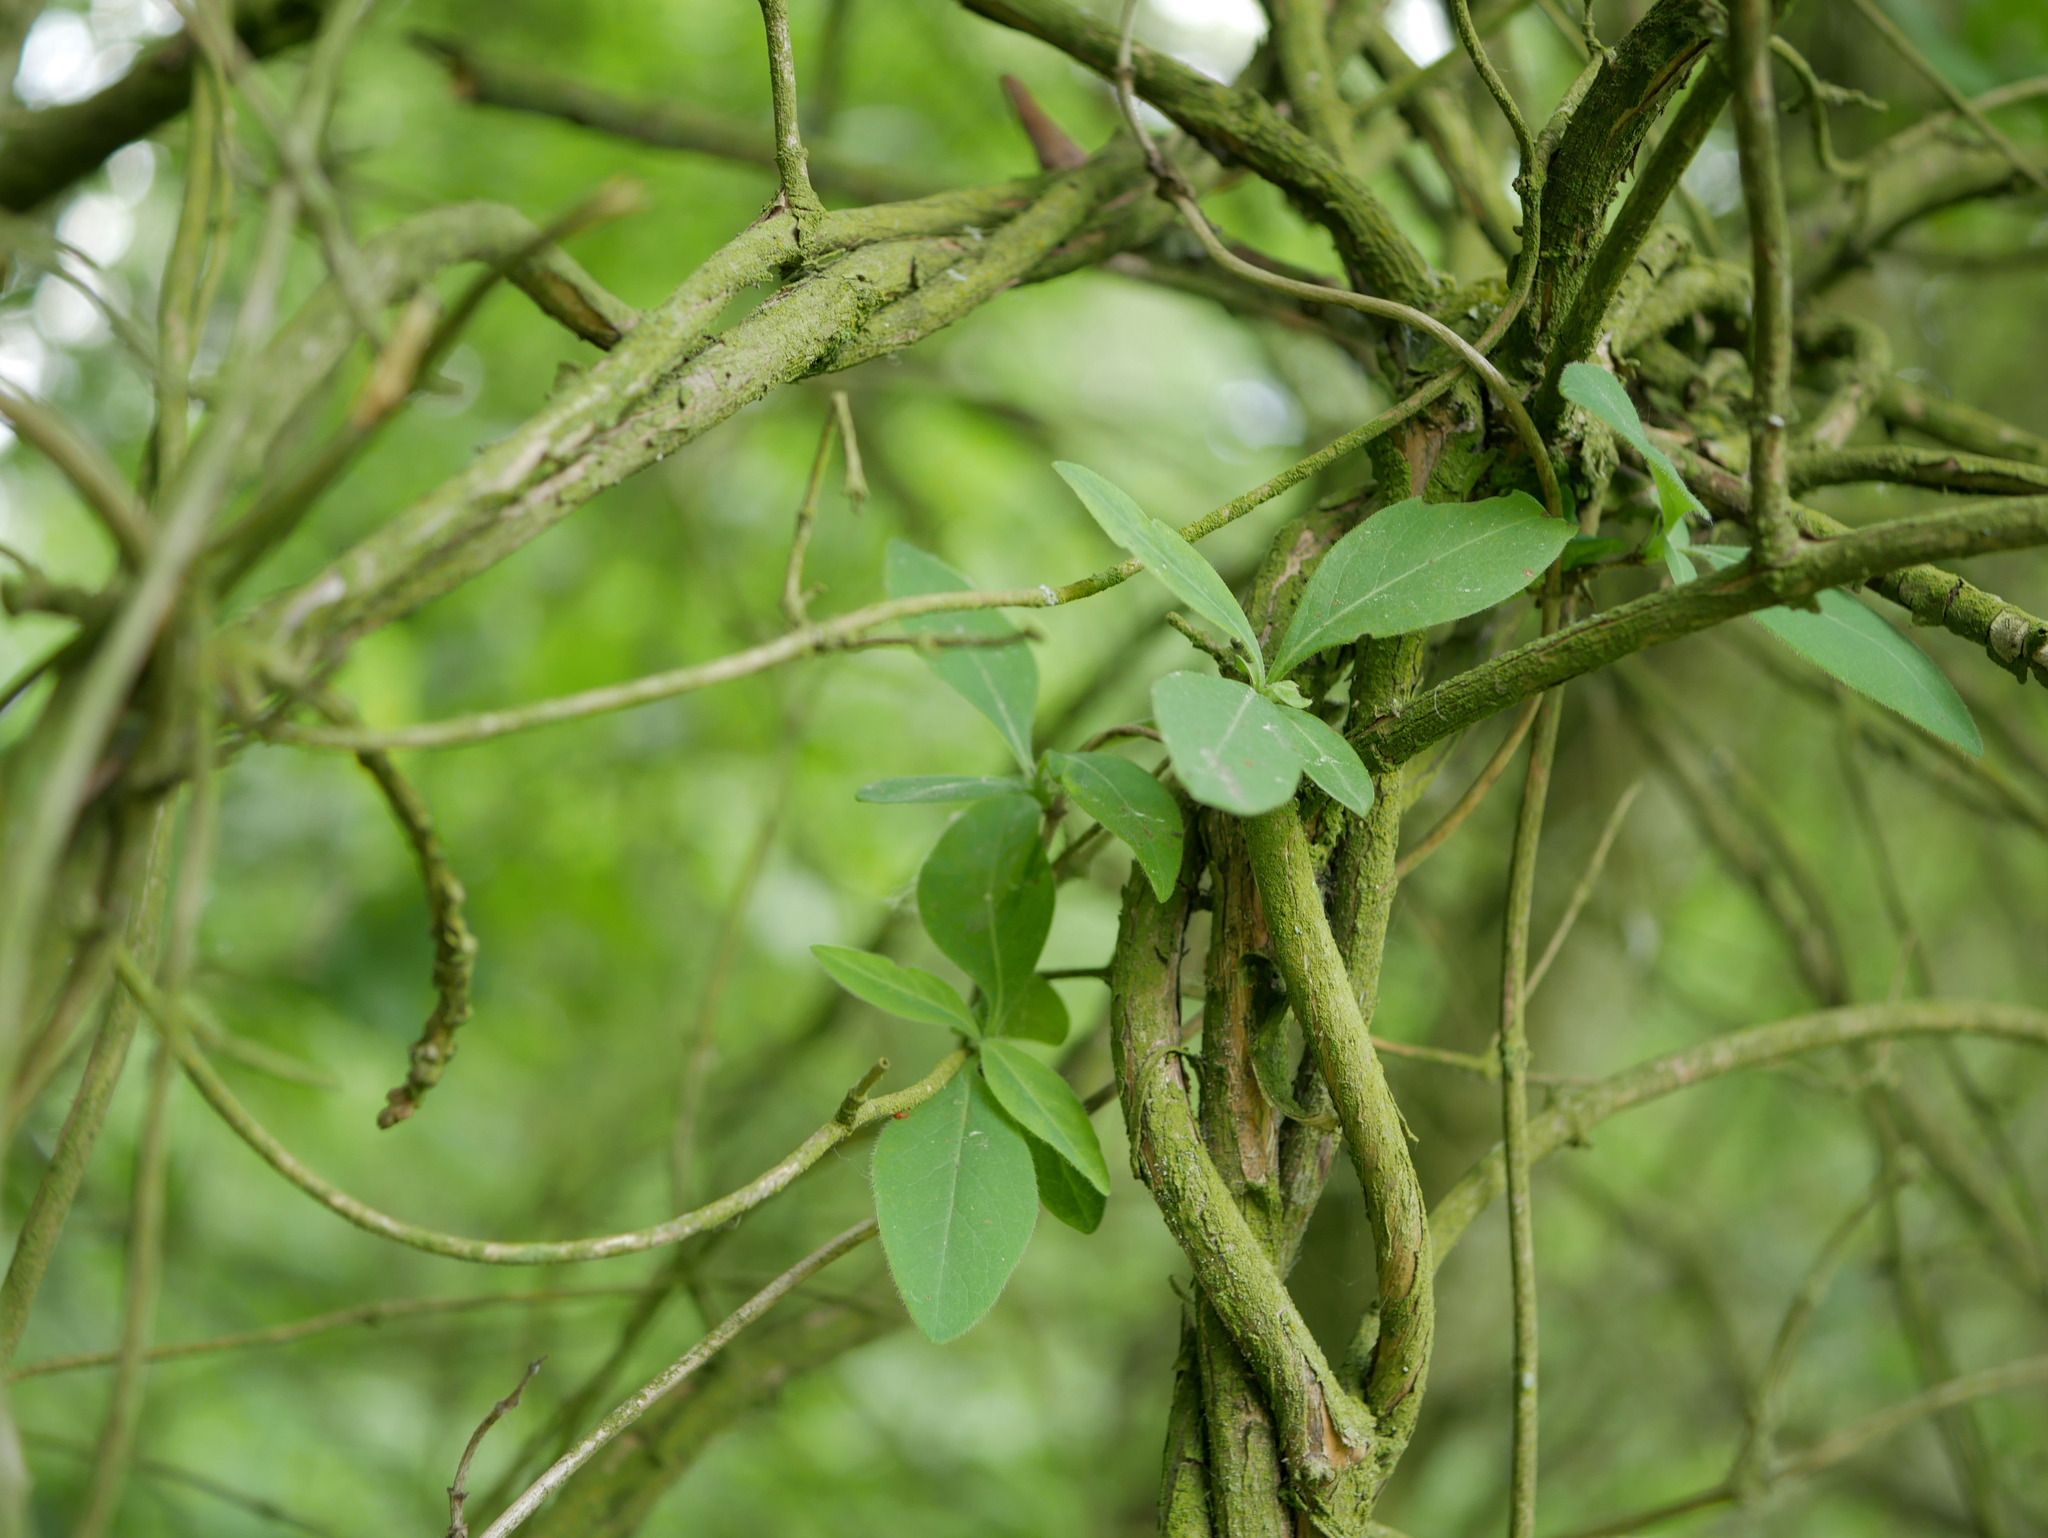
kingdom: Plantae
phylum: Tracheophyta
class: Magnoliopsida
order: Dipsacales
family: Caprifoliaceae
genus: Lonicera
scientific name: Lonicera periclymenum
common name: European honeysuckle
